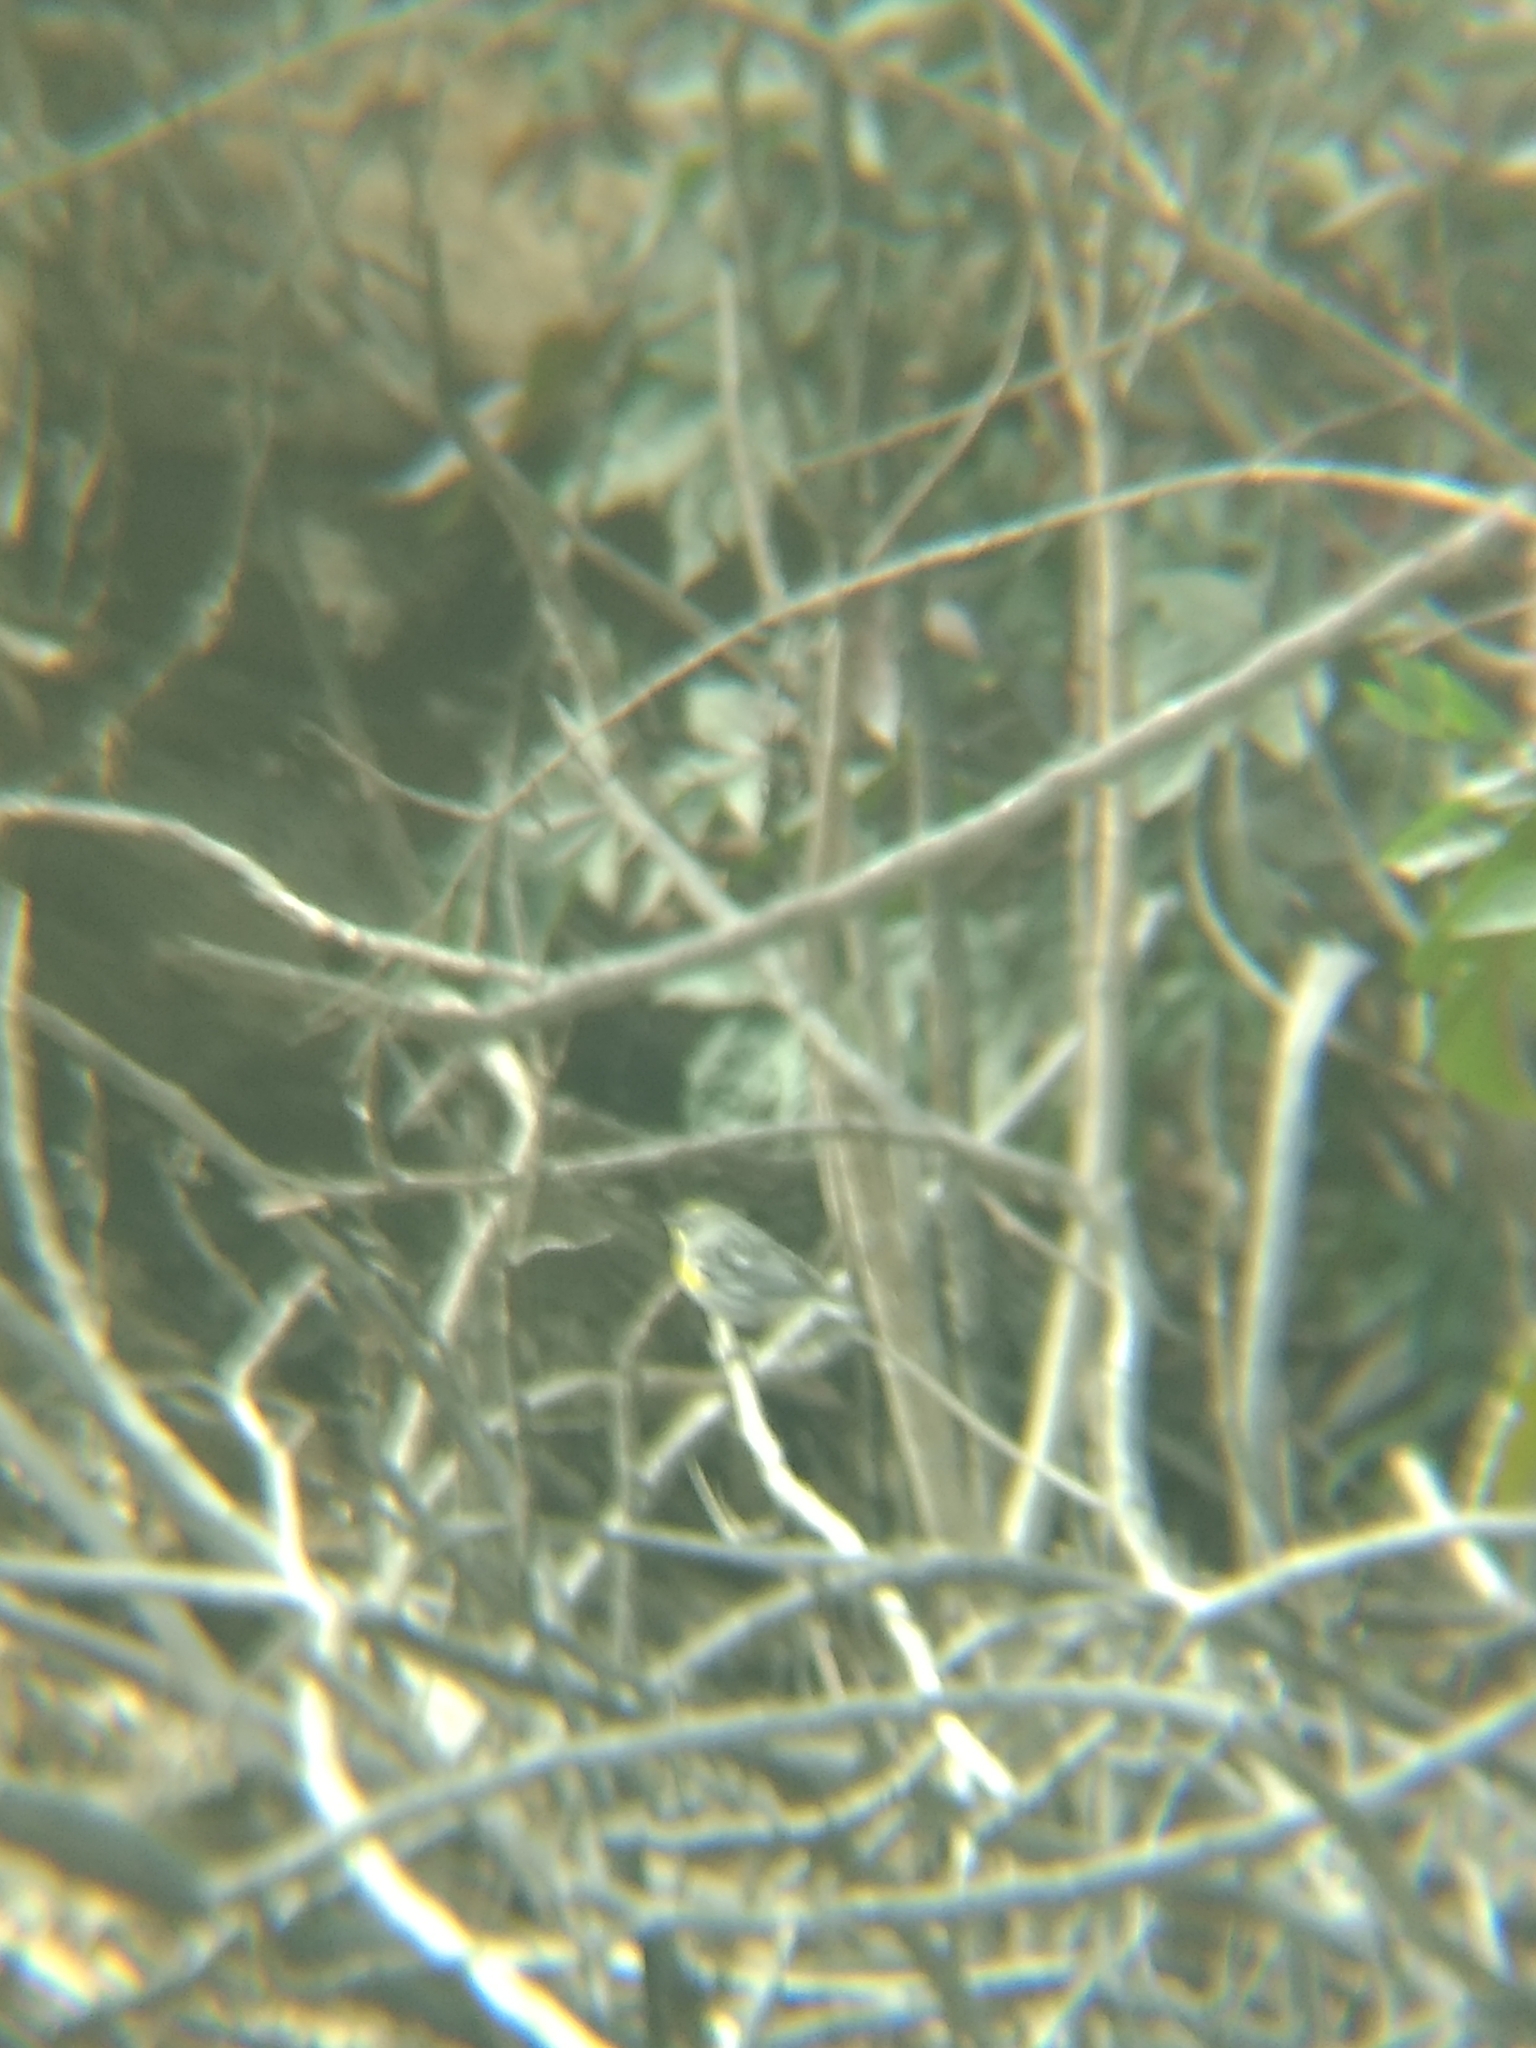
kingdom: Animalia
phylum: Chordata
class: Aves
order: Passeriformes
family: Parulidae
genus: Setophaga
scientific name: Setophaga coronata
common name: Myrtle warbler
